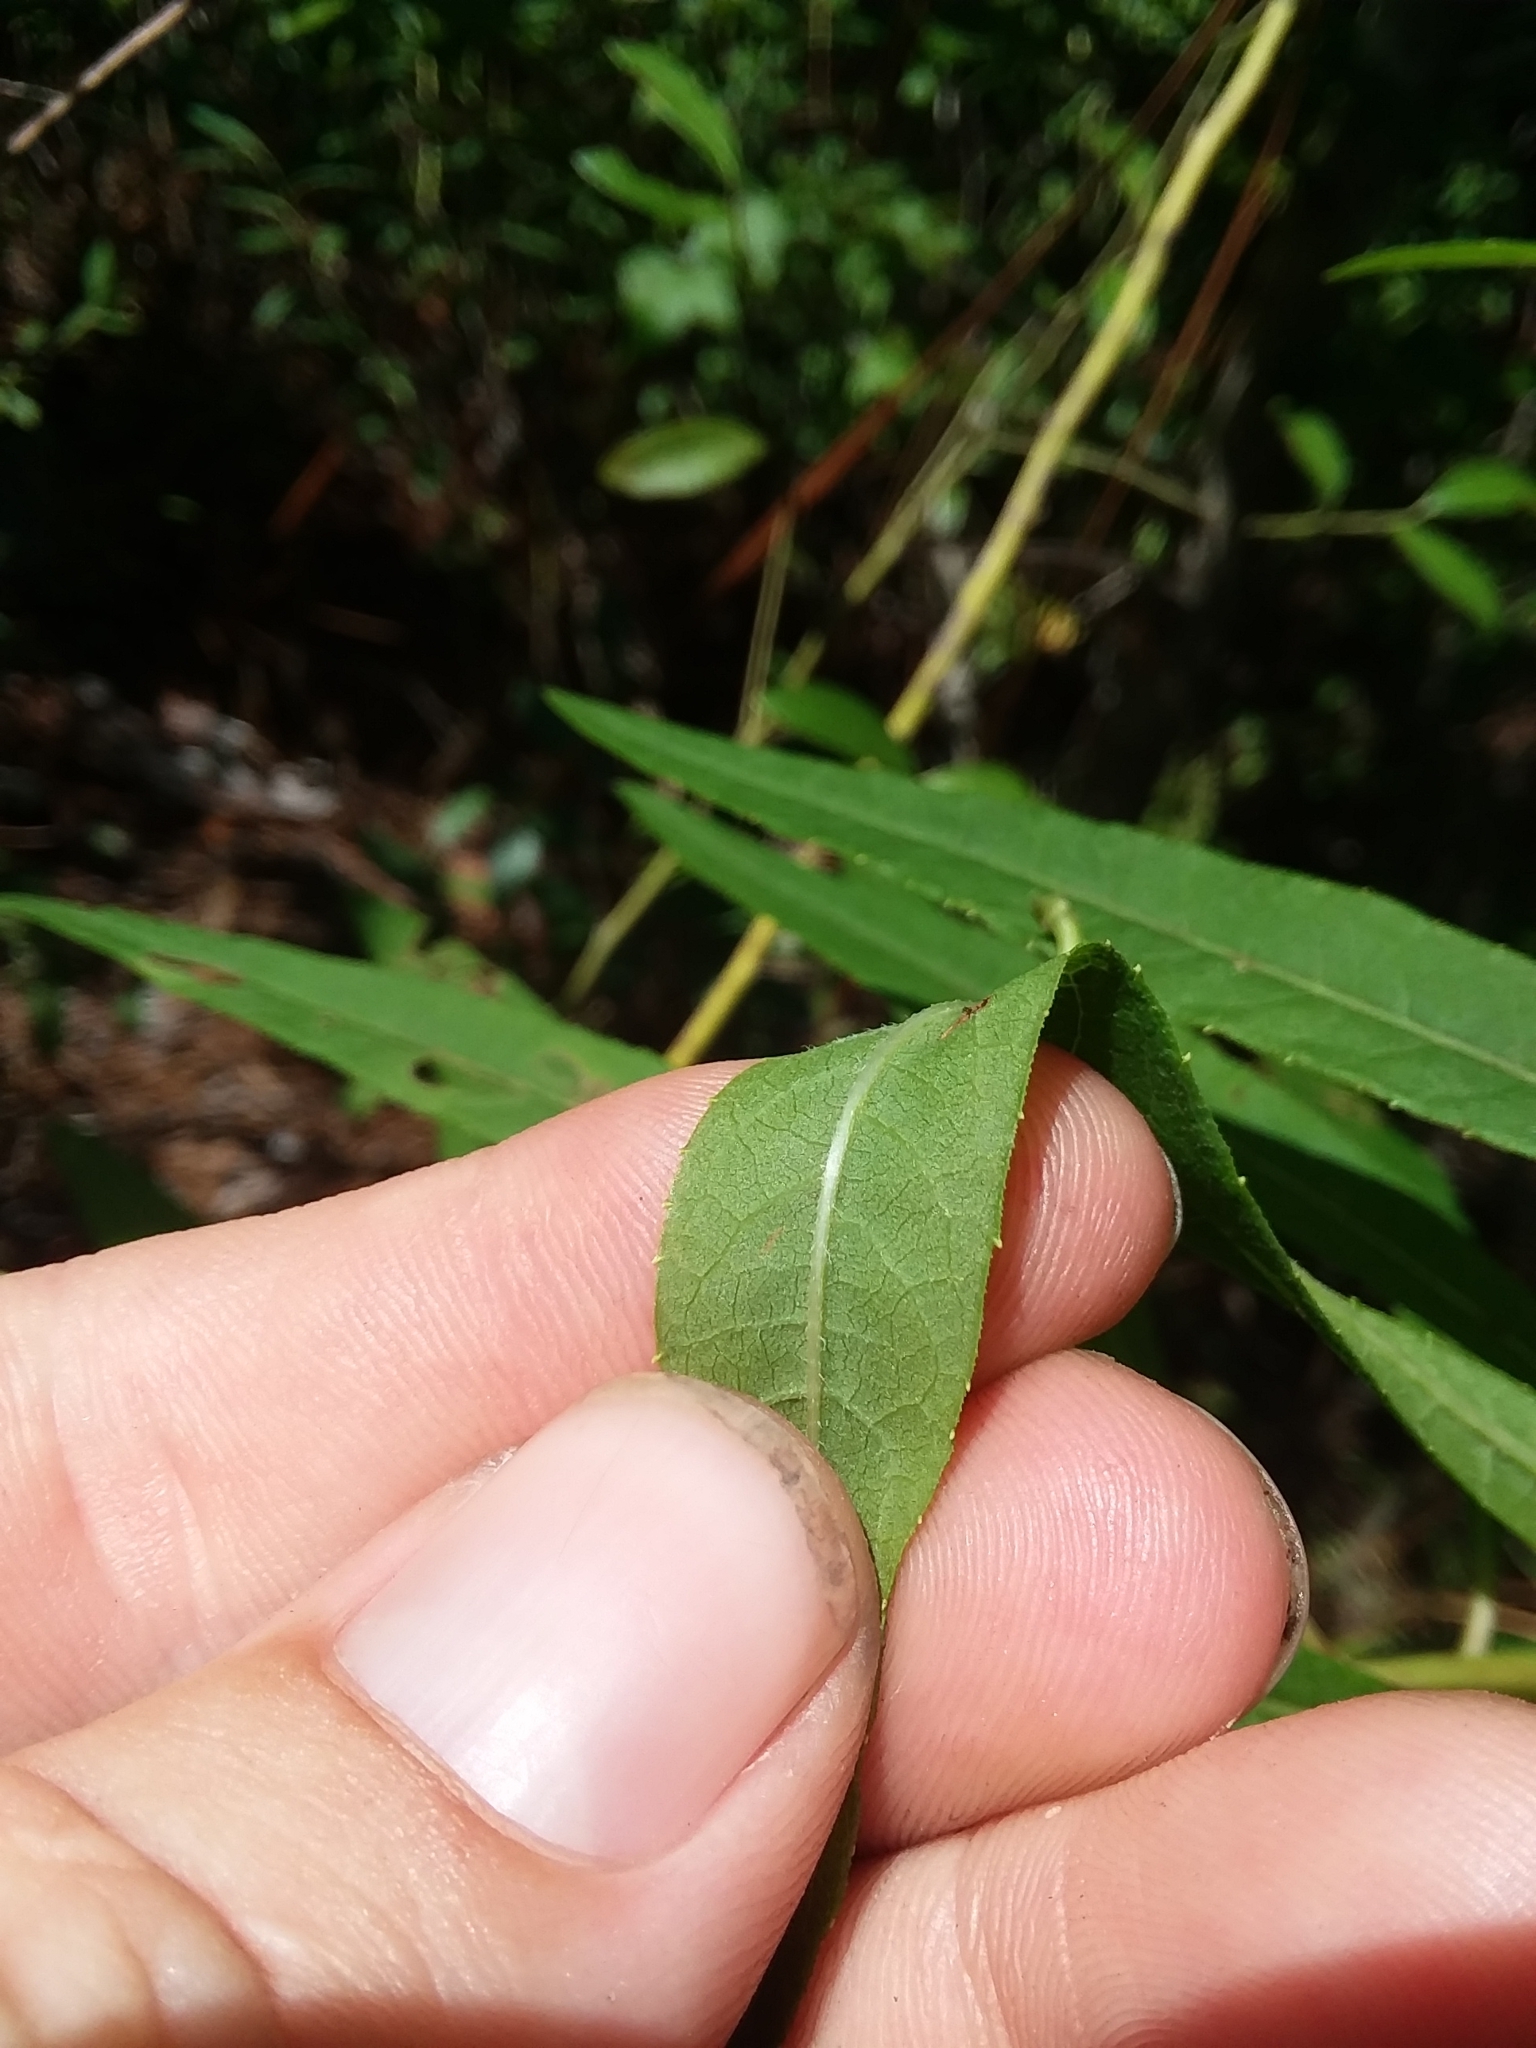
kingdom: Plantae
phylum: Tracheophyta
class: Magnoliopsida
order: Asterales
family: Asteraceae
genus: Vernonia
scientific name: Vernonia gigantea
